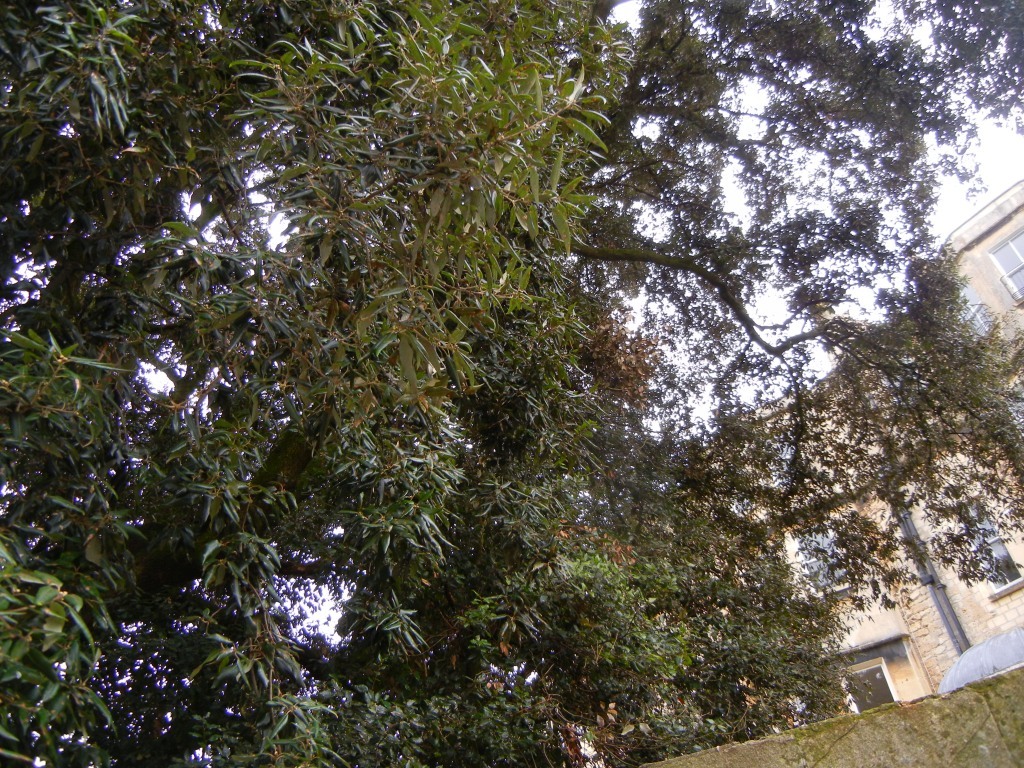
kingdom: Plantae
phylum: Tracheophyta
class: Magnoliopsida
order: Fagales
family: Fagaceae
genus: Quercus
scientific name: Quercus ilex
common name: Evergreen oak
